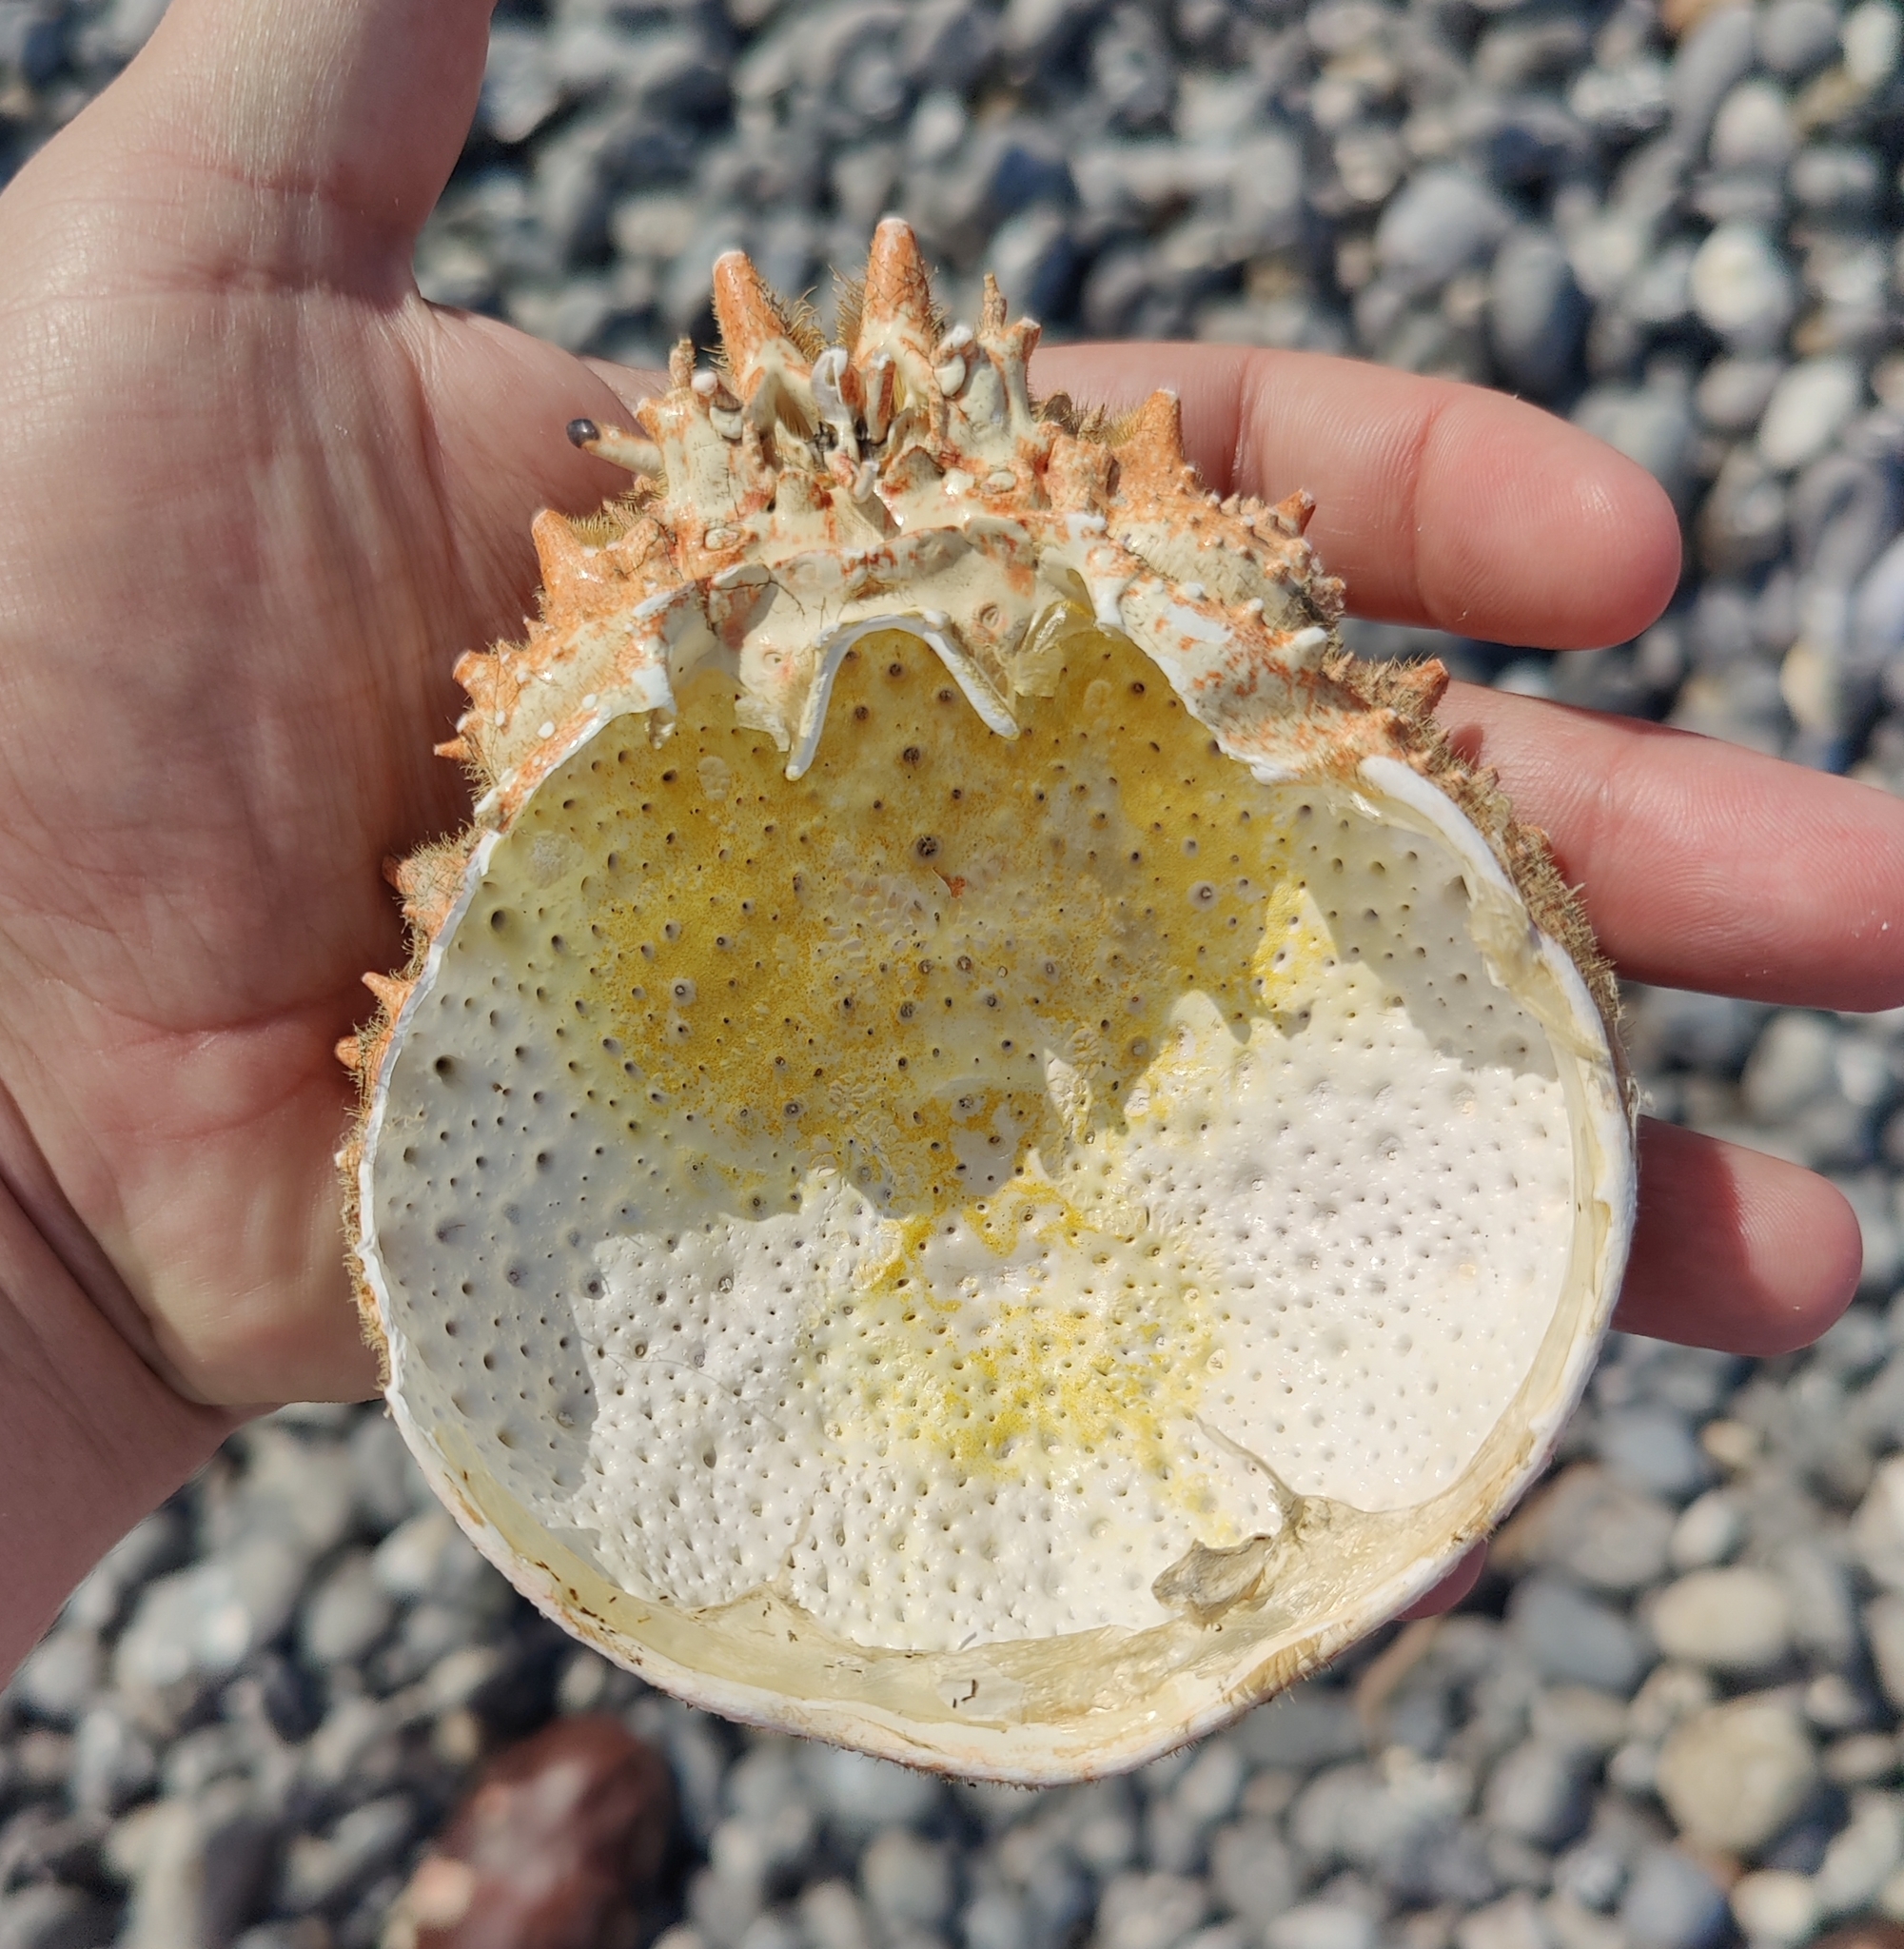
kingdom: Animalia
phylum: Arthropoda
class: Malacostraca
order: Decapoda
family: Majidae
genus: Maja
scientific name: Maja brachydactyla
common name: Common spider crab
